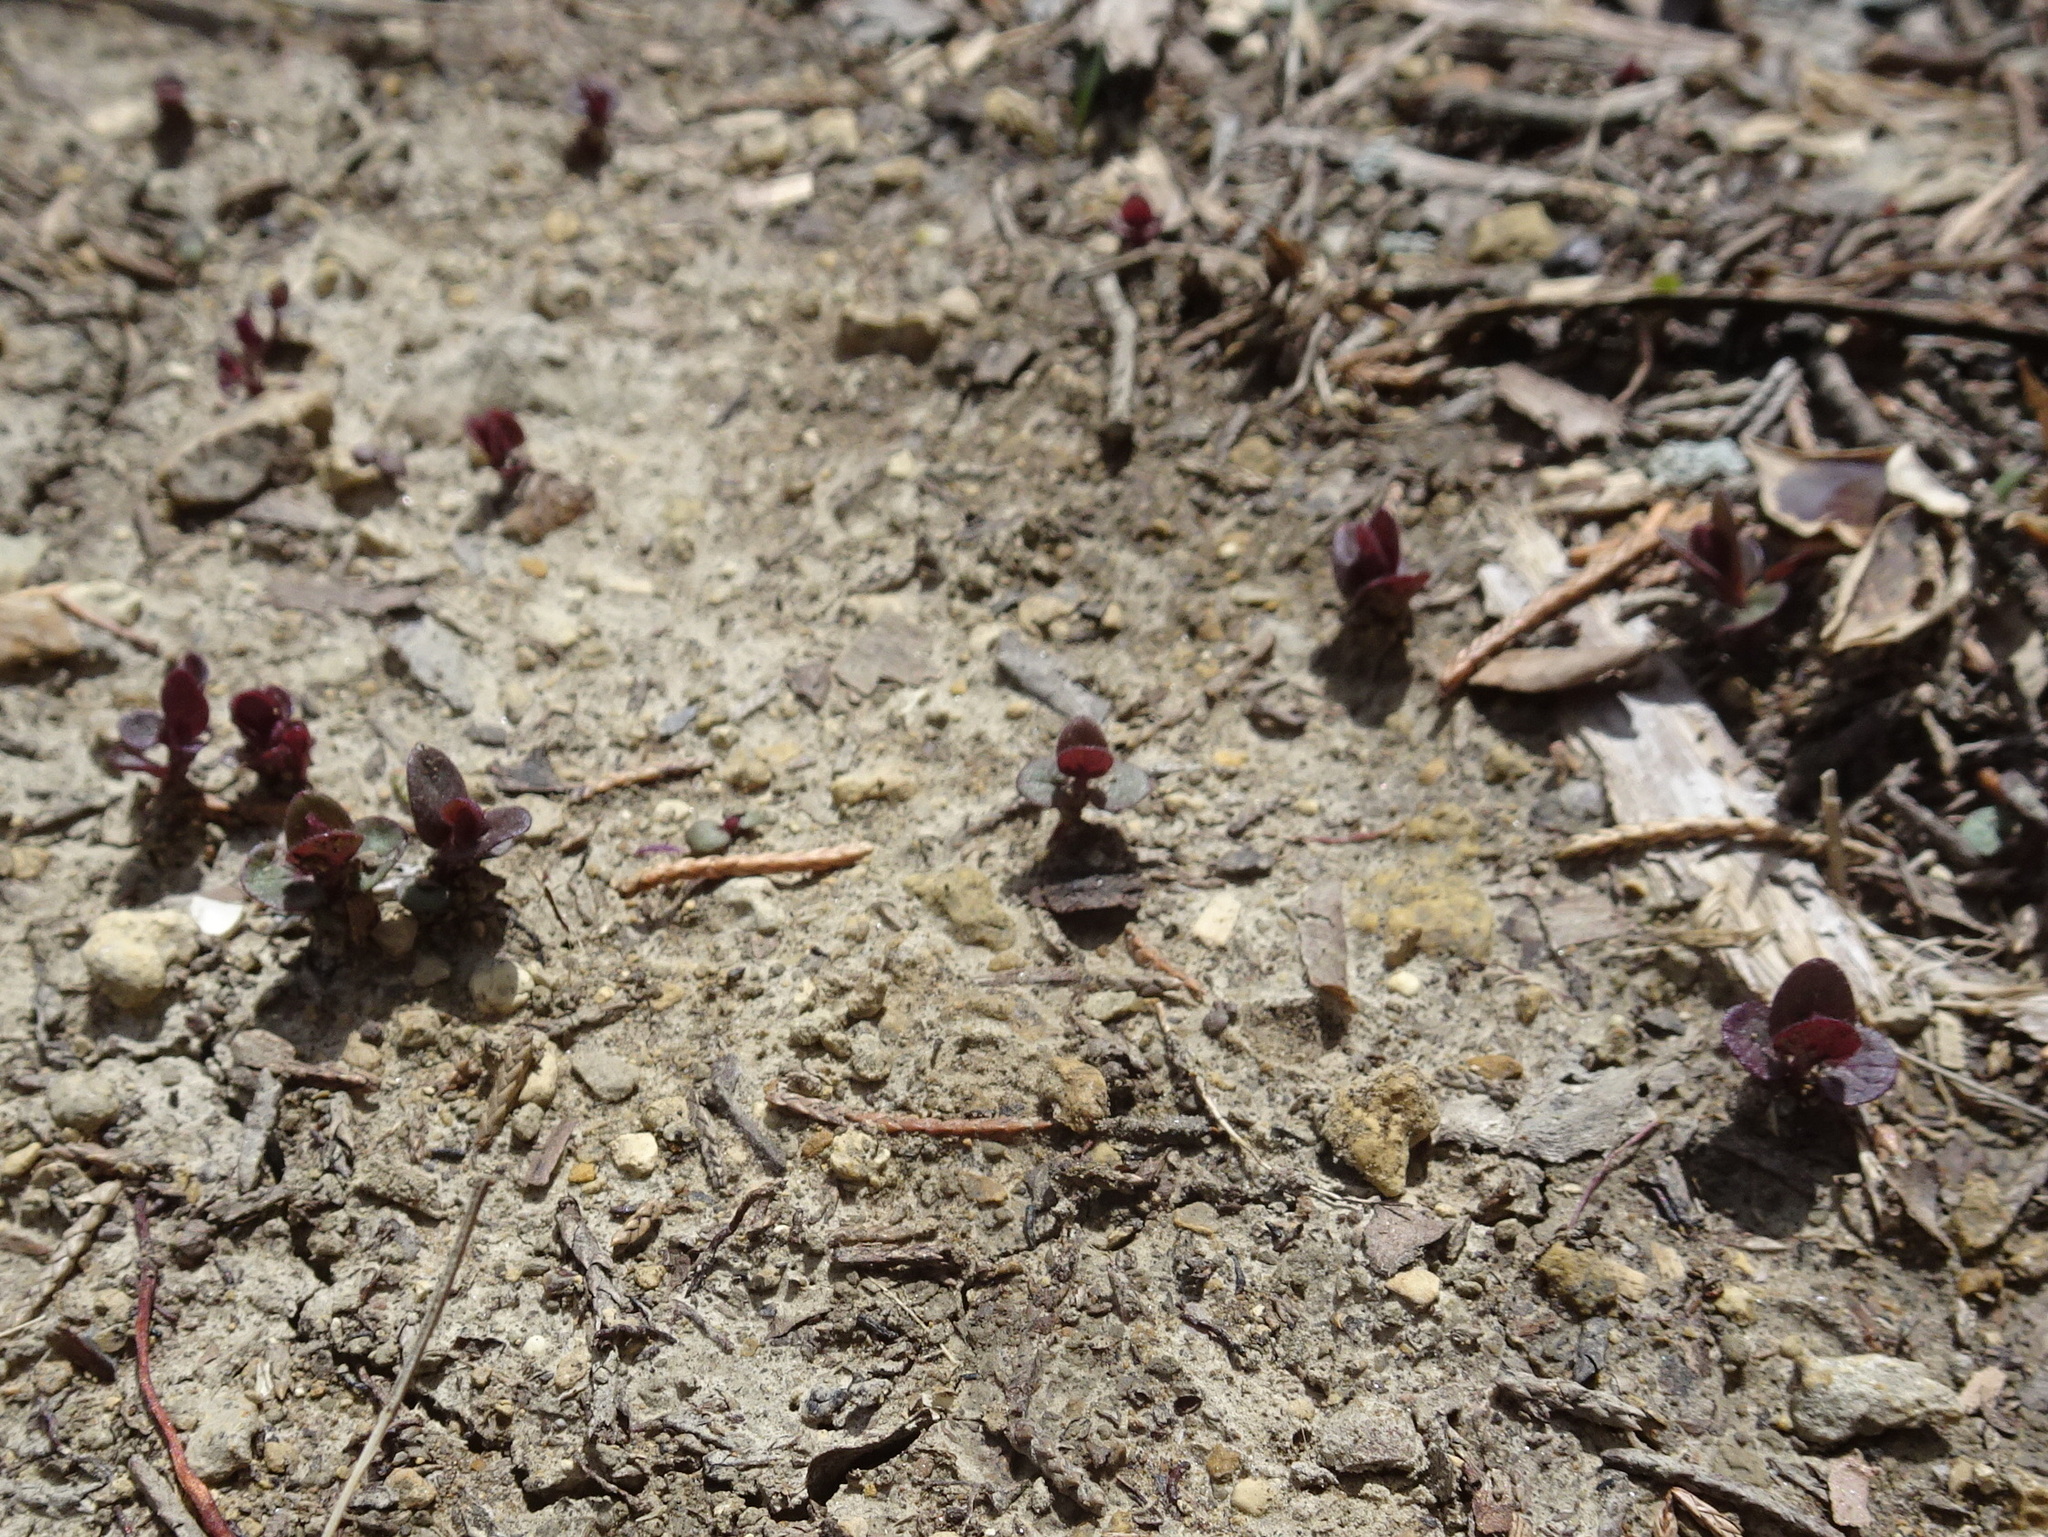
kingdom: Plantae
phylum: Tracheophyta
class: Magnoliopsida
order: Lamiales
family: Lamiaceae
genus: Scutellaria
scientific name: Scutellaria parvula
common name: Little scullcap
